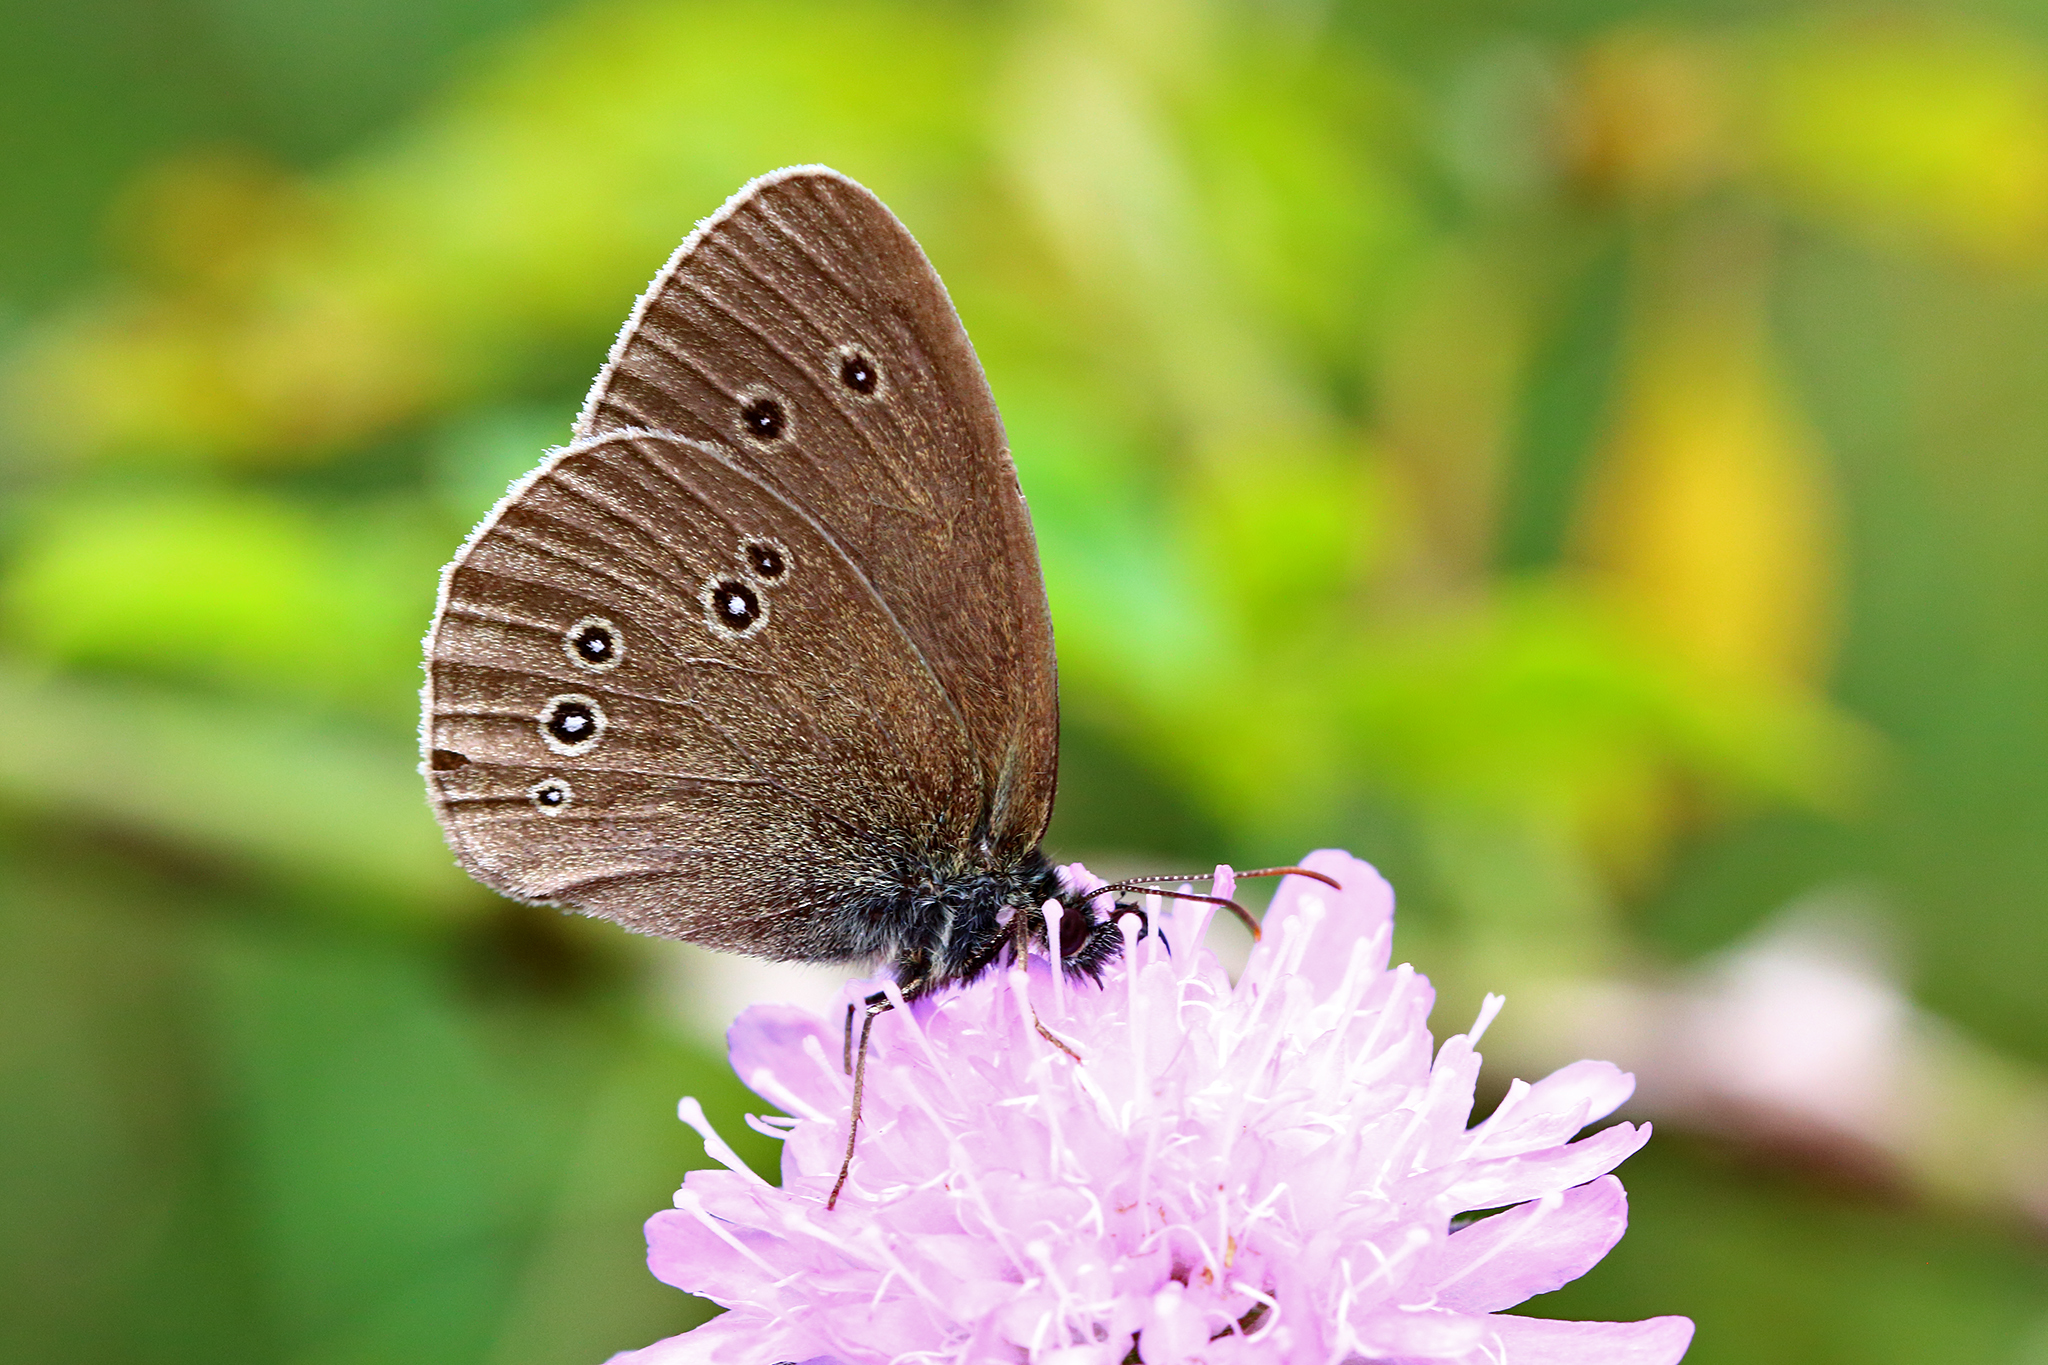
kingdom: Animalia
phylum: Arthropoda
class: Insecta
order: Lepidoptera
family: Nymphalidae
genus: Aphantopus
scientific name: Aphantopus hyperantus
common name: Ringlet
